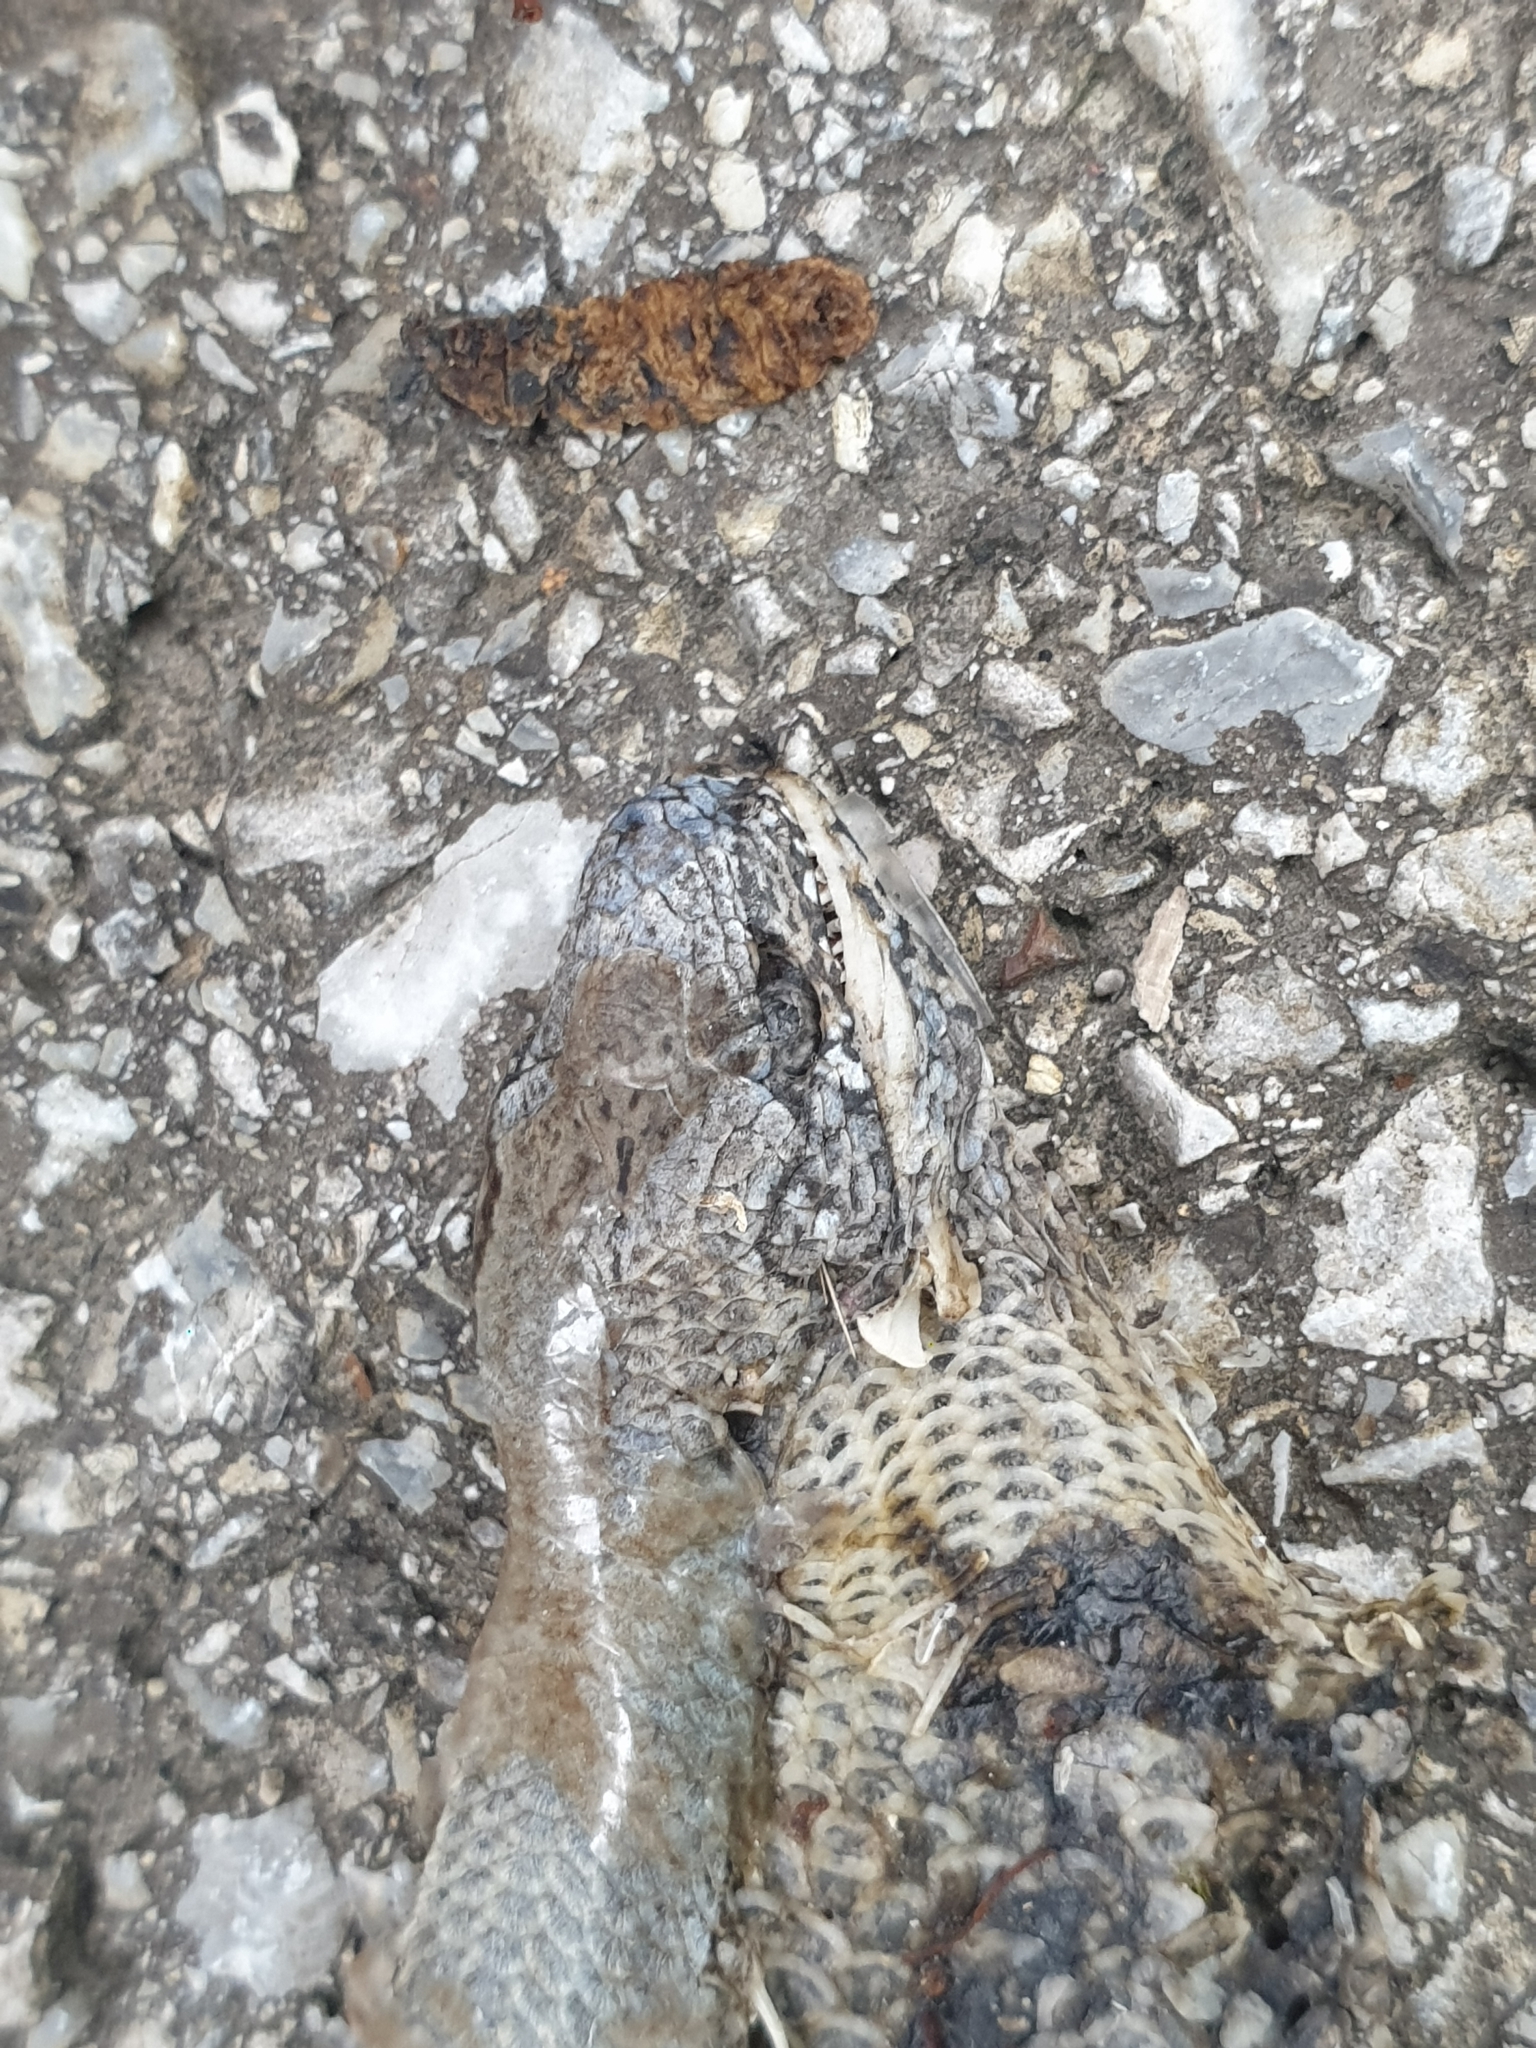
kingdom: Animalia
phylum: Chordata
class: Squamata
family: Anguidae
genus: Anguis
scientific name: Anguis fragilis
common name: Slow worm
